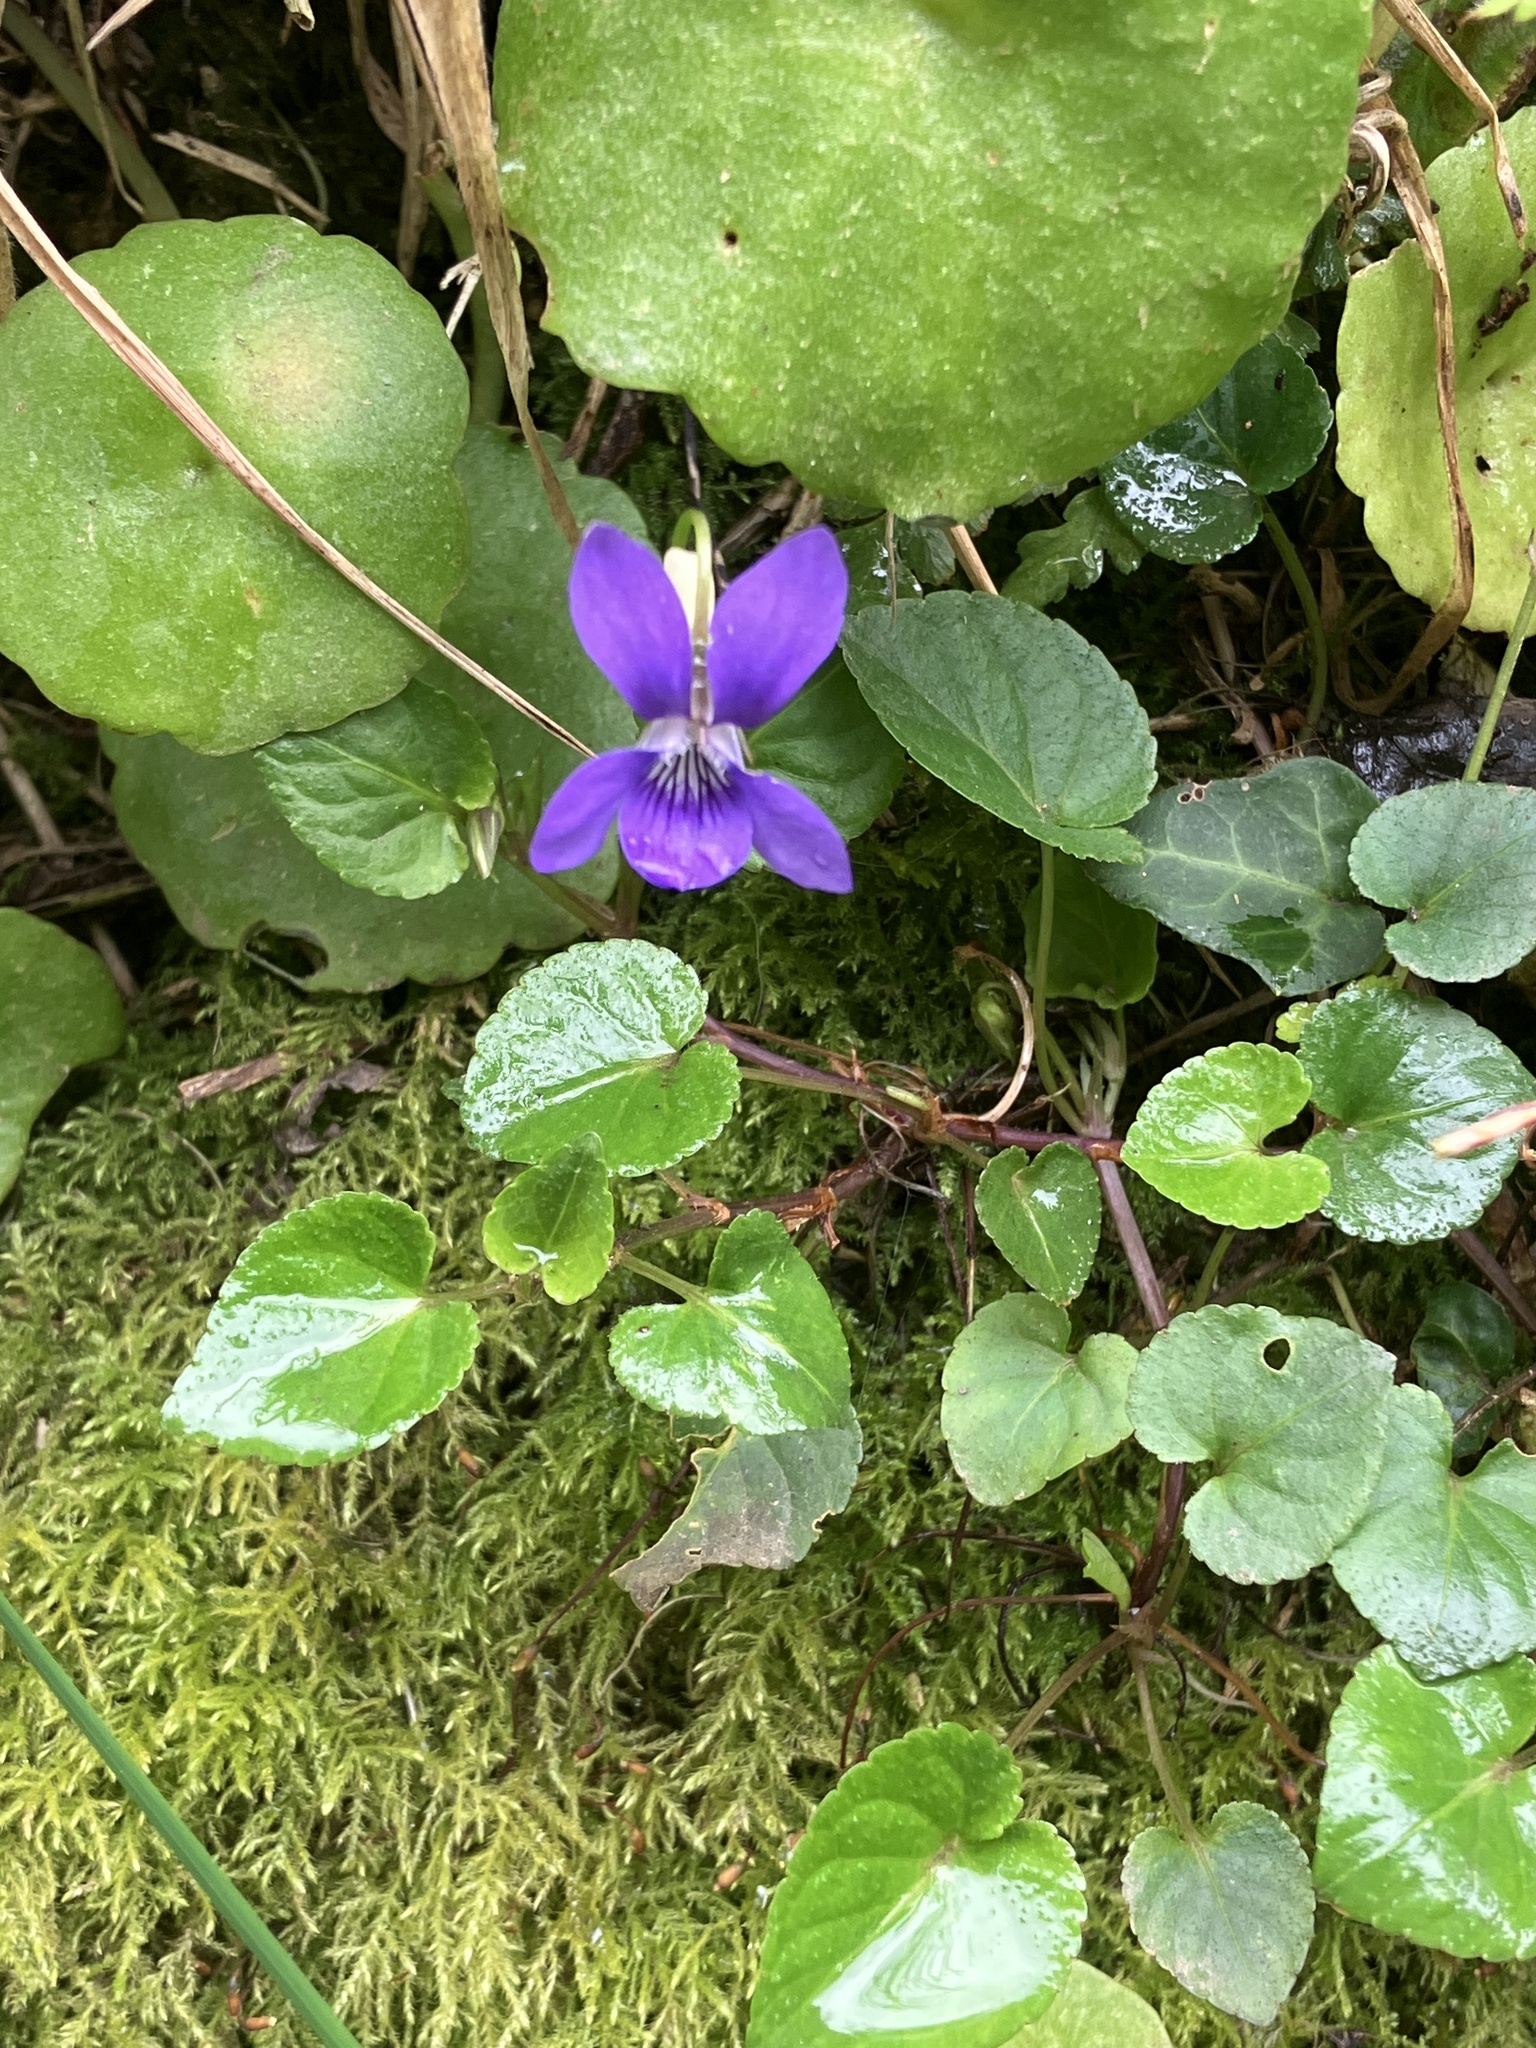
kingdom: Plantae
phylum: Tracheophyta
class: Magnoliopsida
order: Malpighiales
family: Violaceae
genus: Viola
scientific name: Viola riviniana
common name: Common dog-violet
